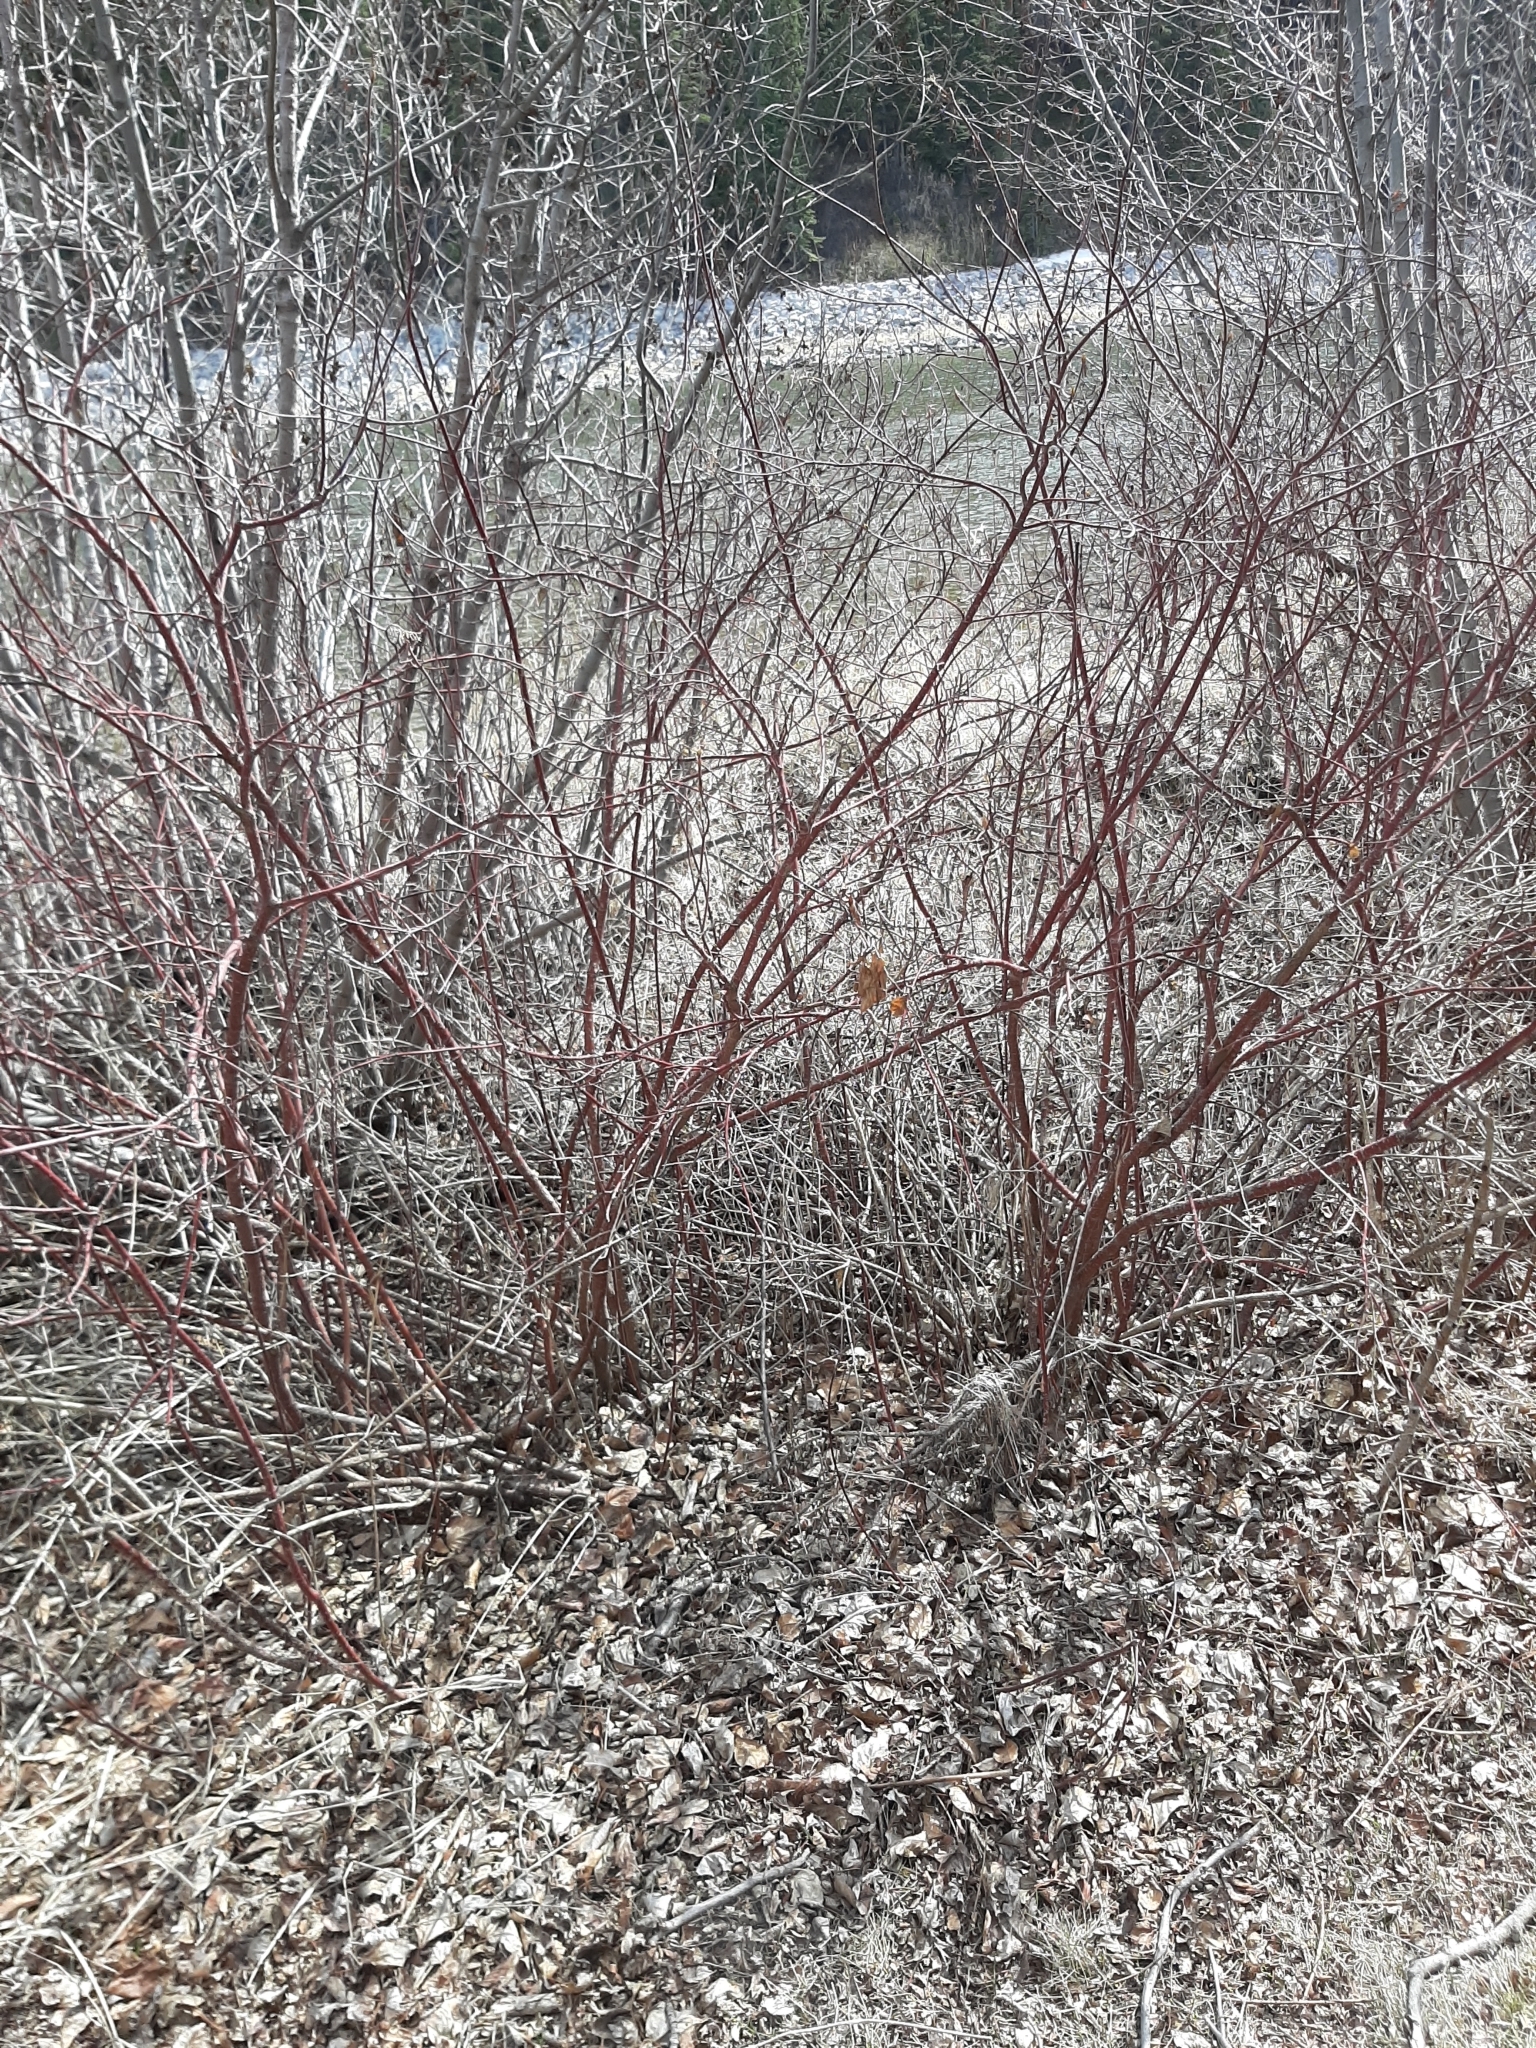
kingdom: Plantae
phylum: Tracheophyta
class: Magnoliopsida
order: Cornales
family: Cornaceae
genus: Cornus
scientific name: Cornus sericea
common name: Red-osier dogwood
